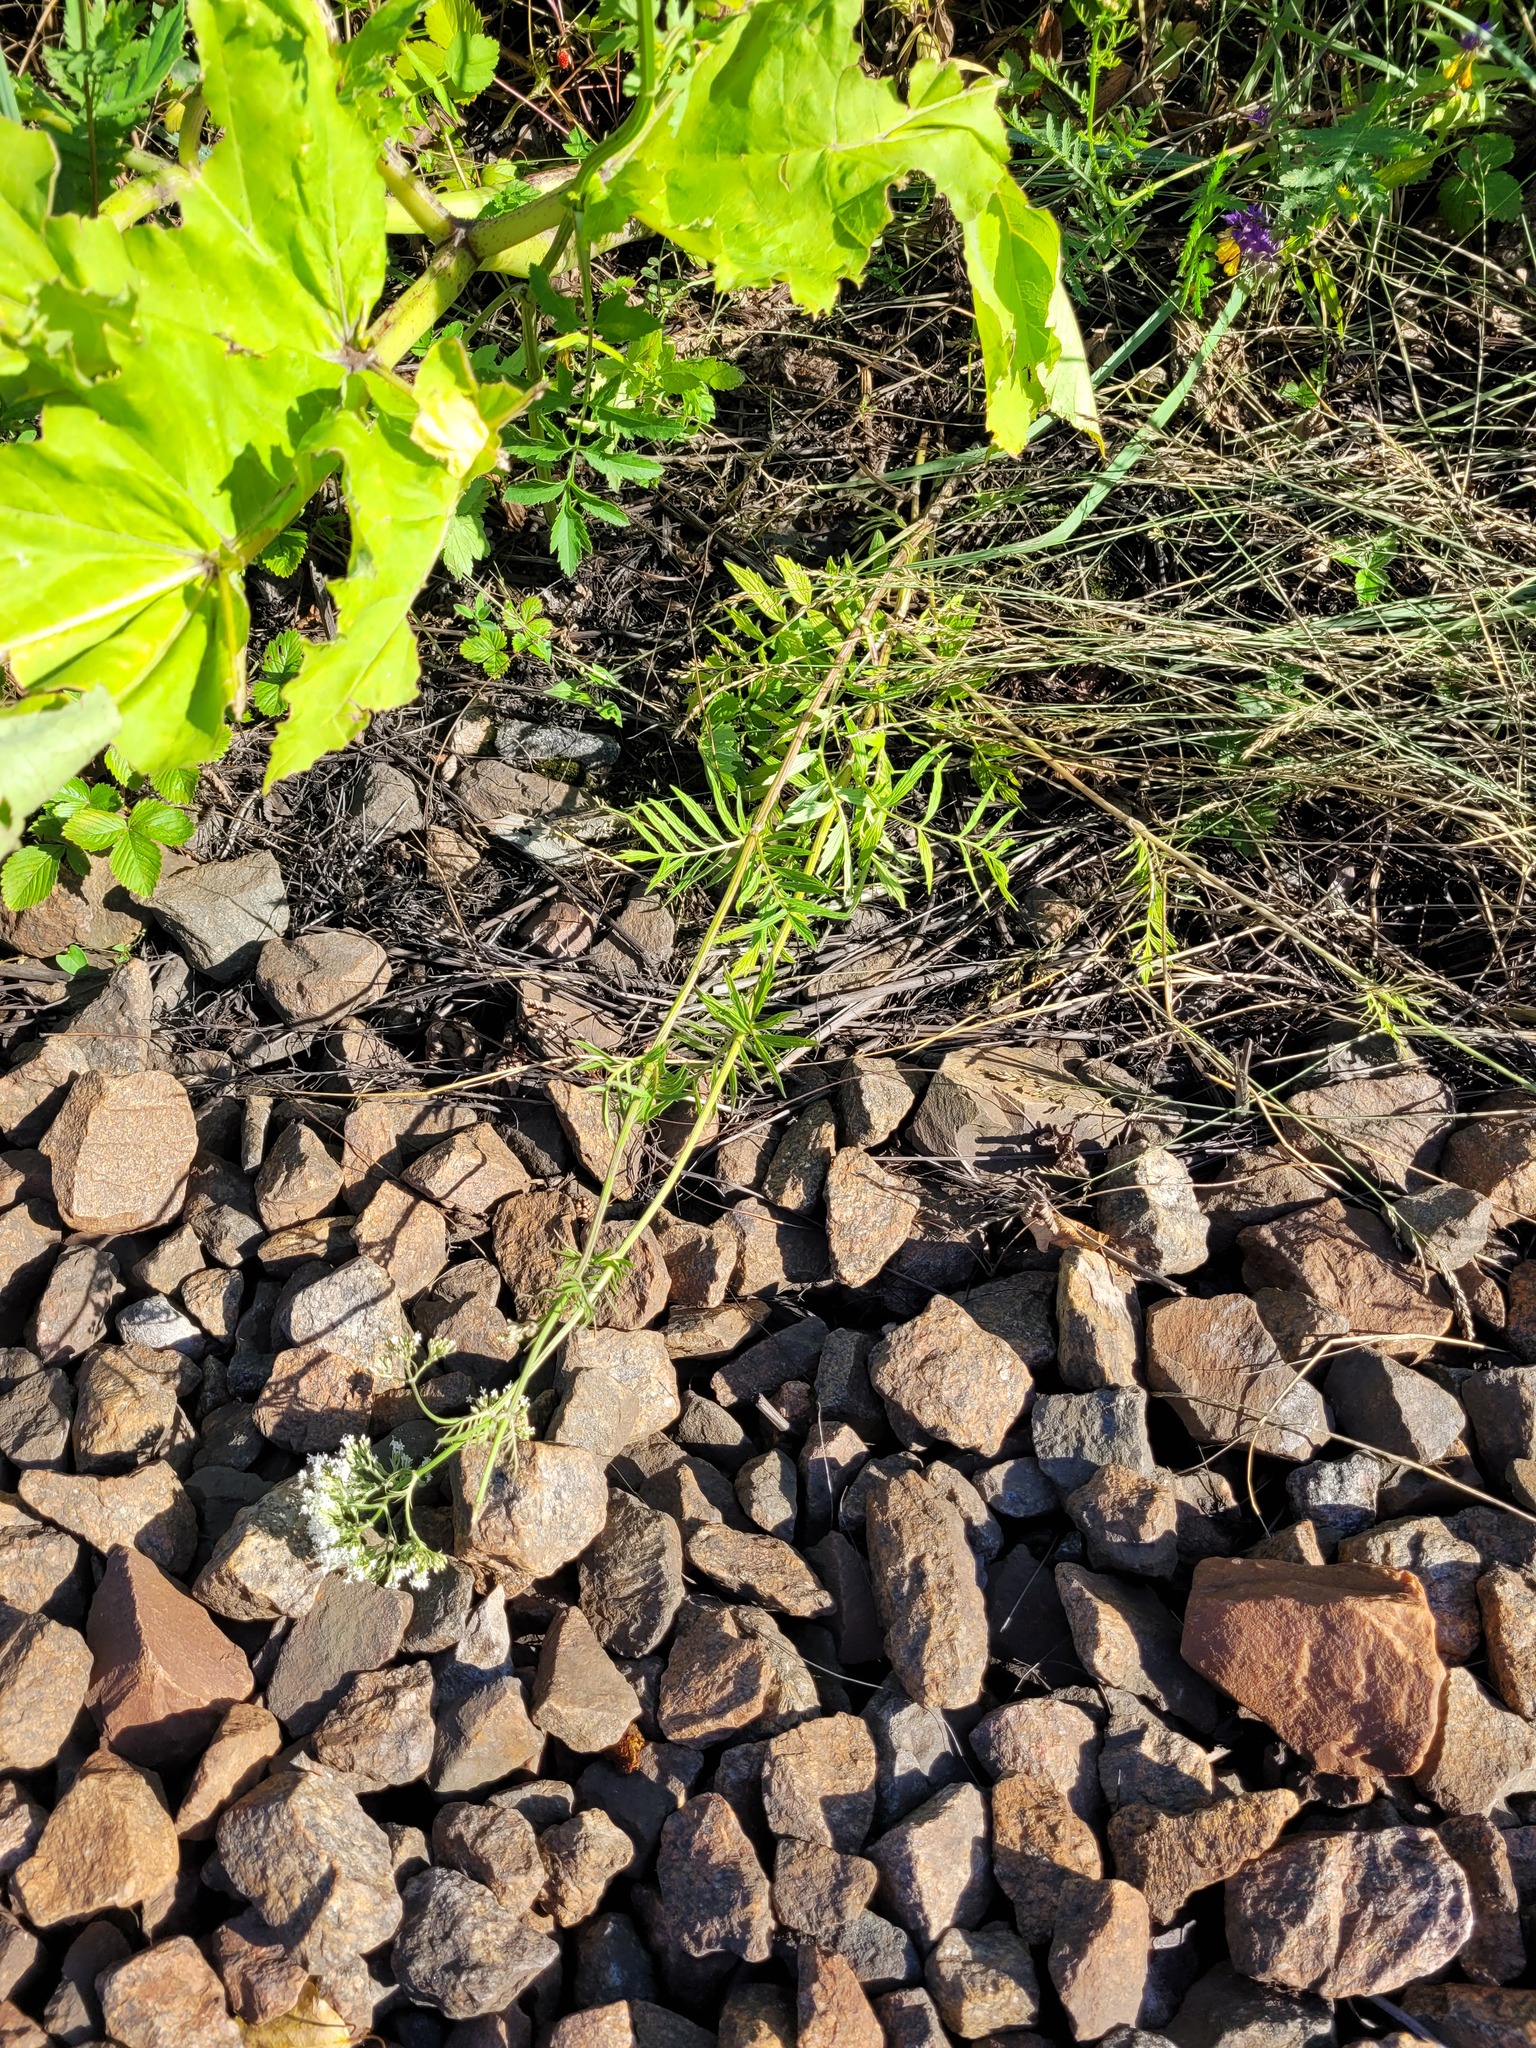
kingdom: Plantae
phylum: Tracheophyta
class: Magnoliopsida
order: Dipsacales
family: Caprifoliaceae
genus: Valeriana
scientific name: Valeriana officinalis
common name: Common valerian
